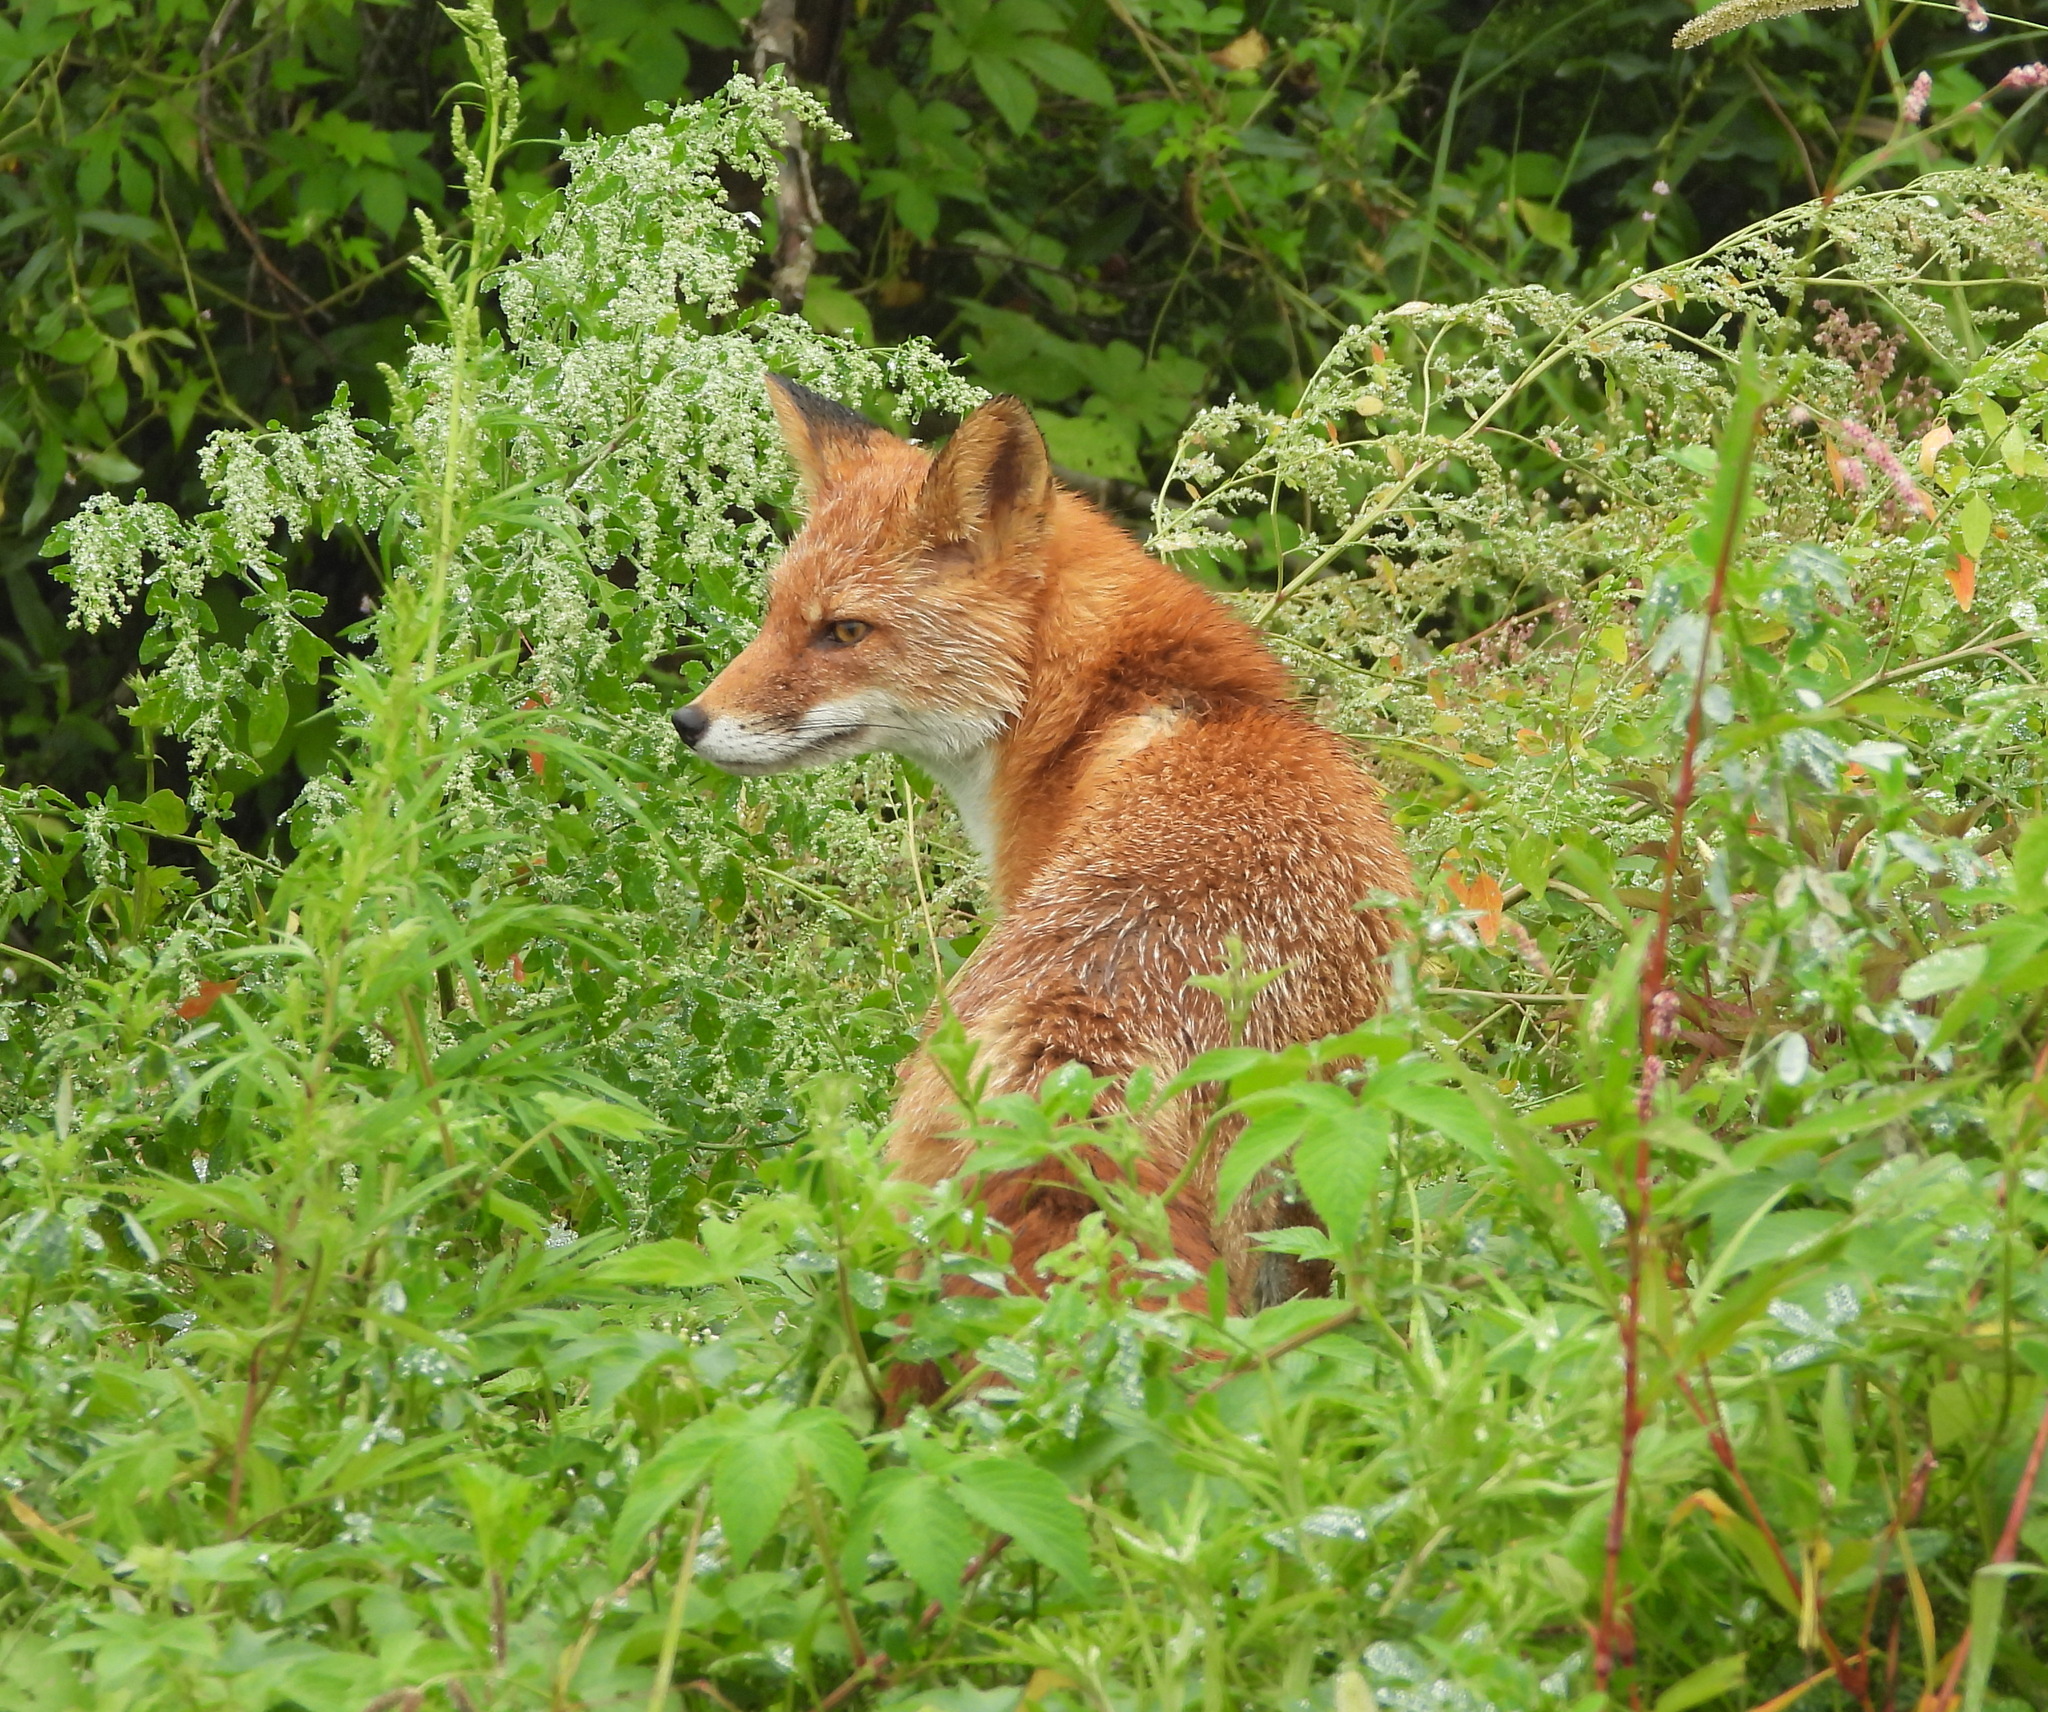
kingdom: Animalia
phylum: Chordata
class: Mammalia
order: Carnivora
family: Canidae
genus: Vulpes
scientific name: Vulpes vulpes
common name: Red fox
